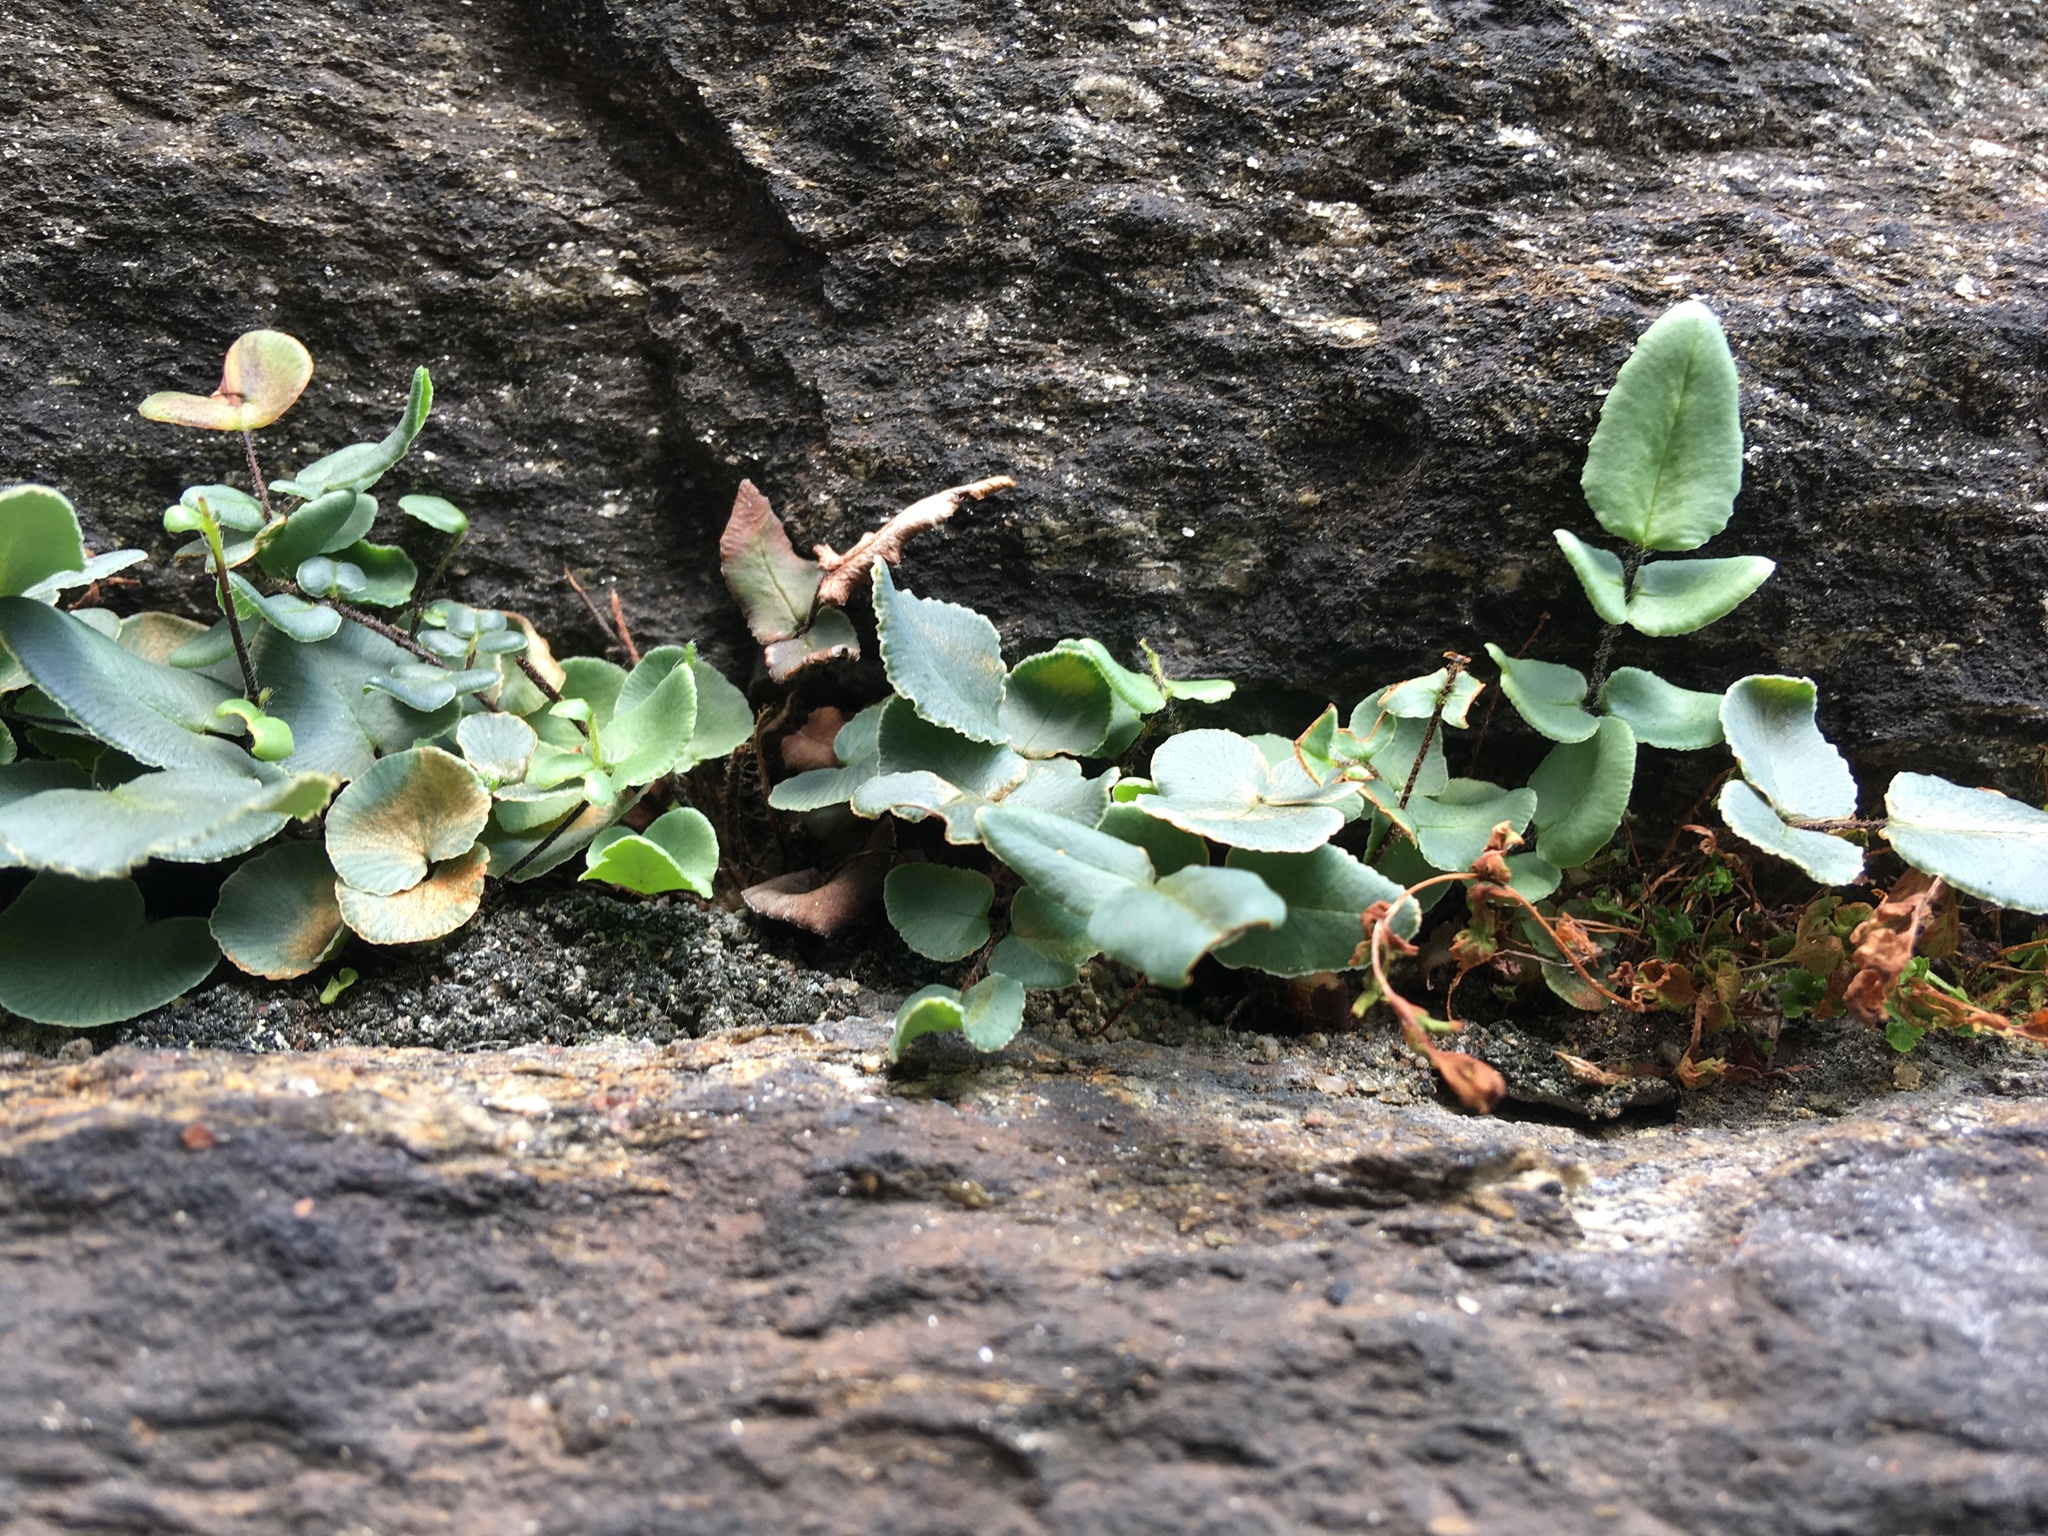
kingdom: Plantae
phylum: Tracheophyta
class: Polypodiopsida
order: Polypodiales
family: Pteridaceae
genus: Pellaea
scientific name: Pellaea atropurpurea
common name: Hairy cliffbrake
